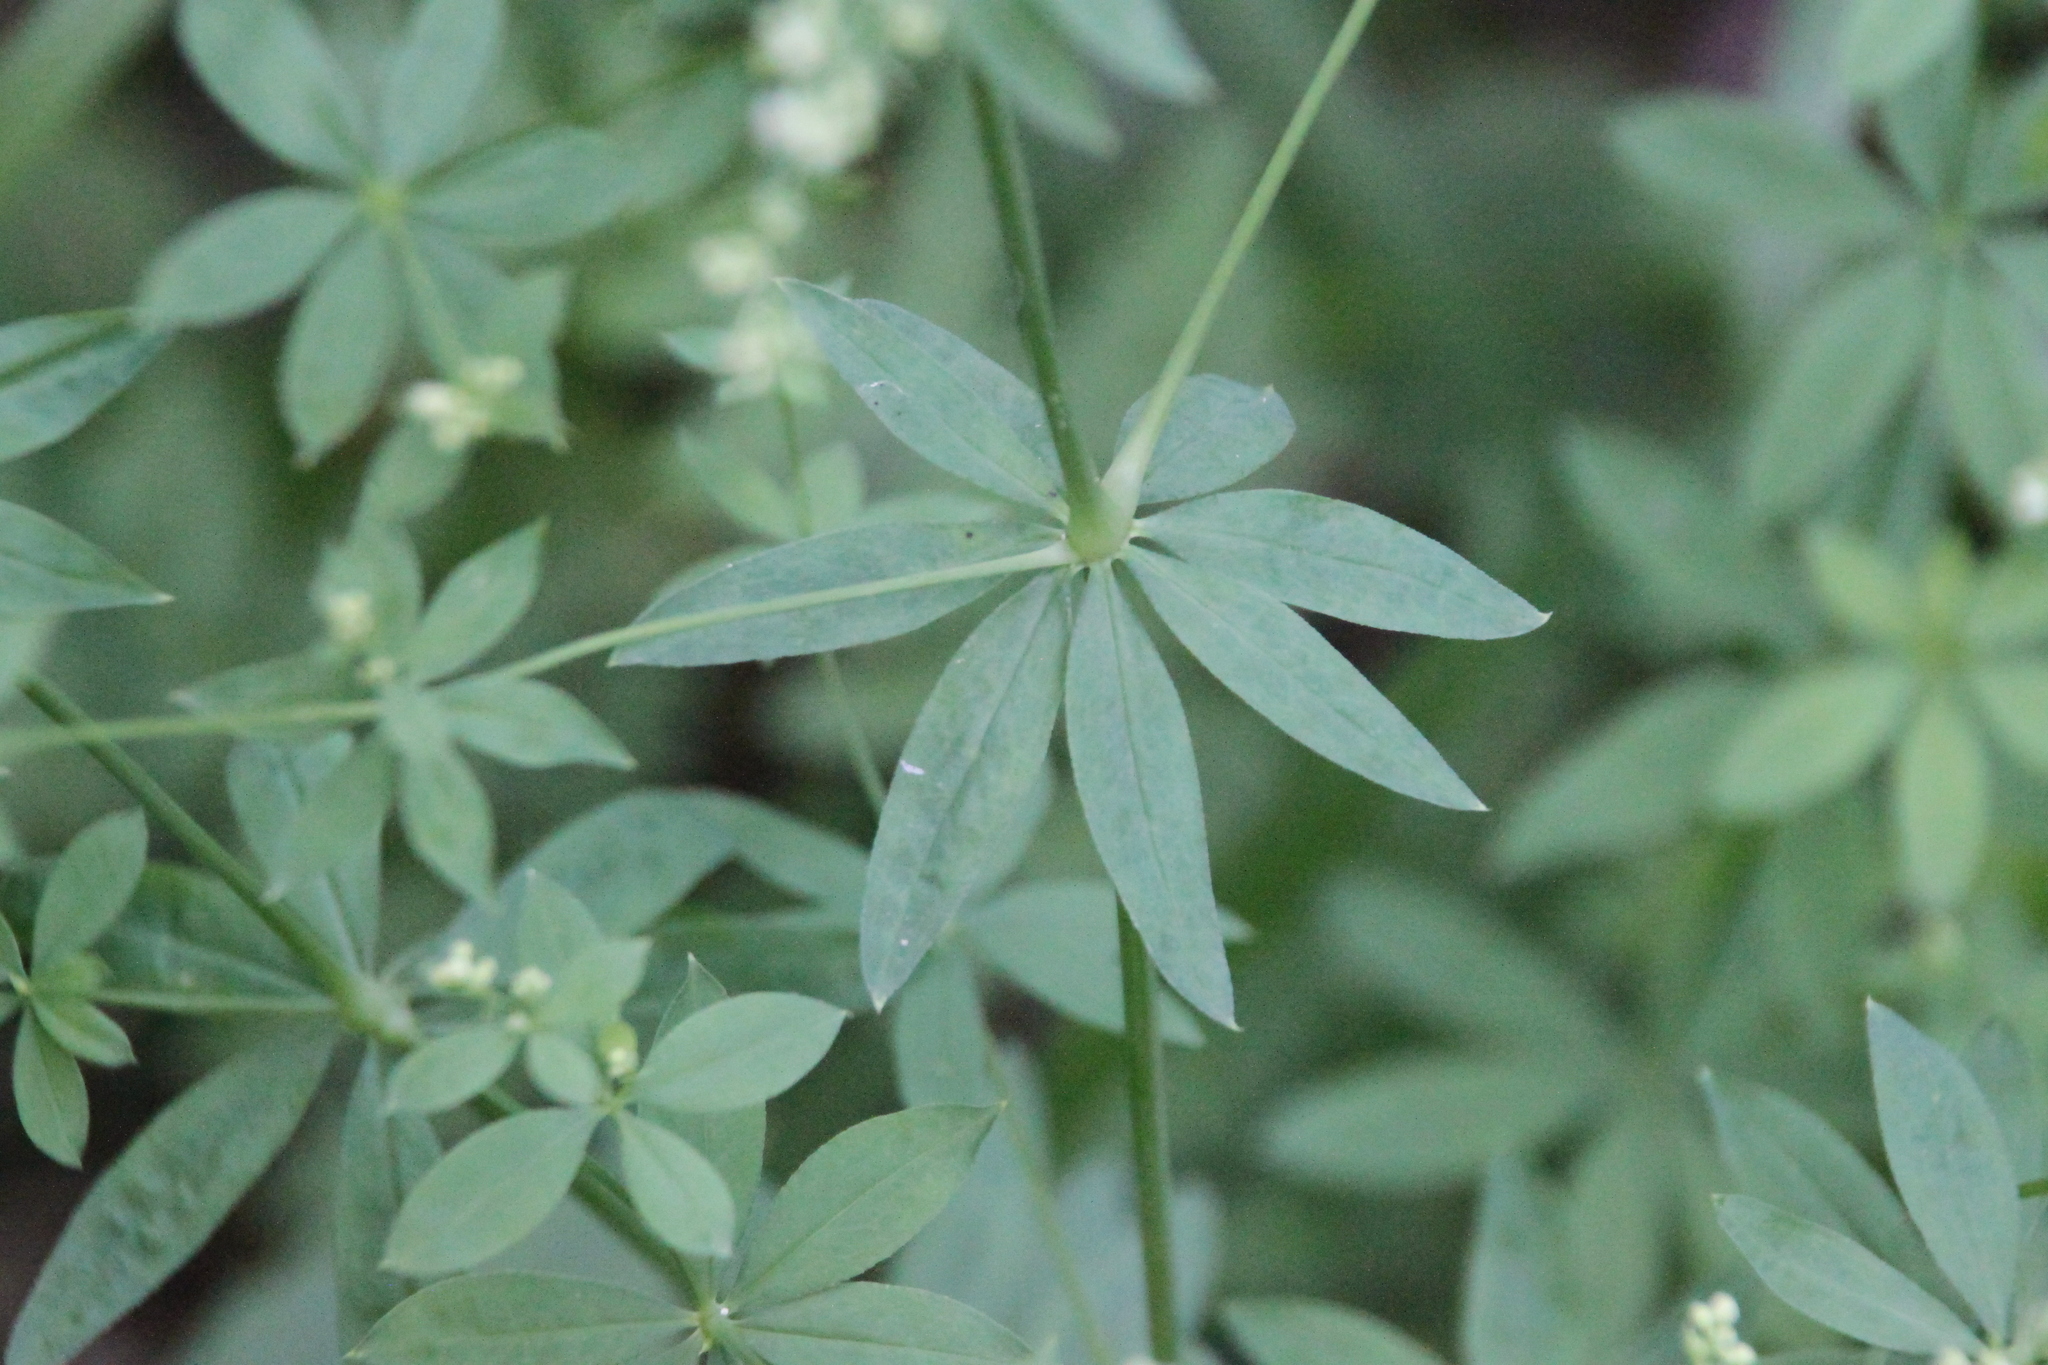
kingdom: Plantae
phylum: Tracheophyta
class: Magnoliopsida
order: Gentianales
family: Rubiaceae
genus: Galium
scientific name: Galium intermedium
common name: Bedstraw
